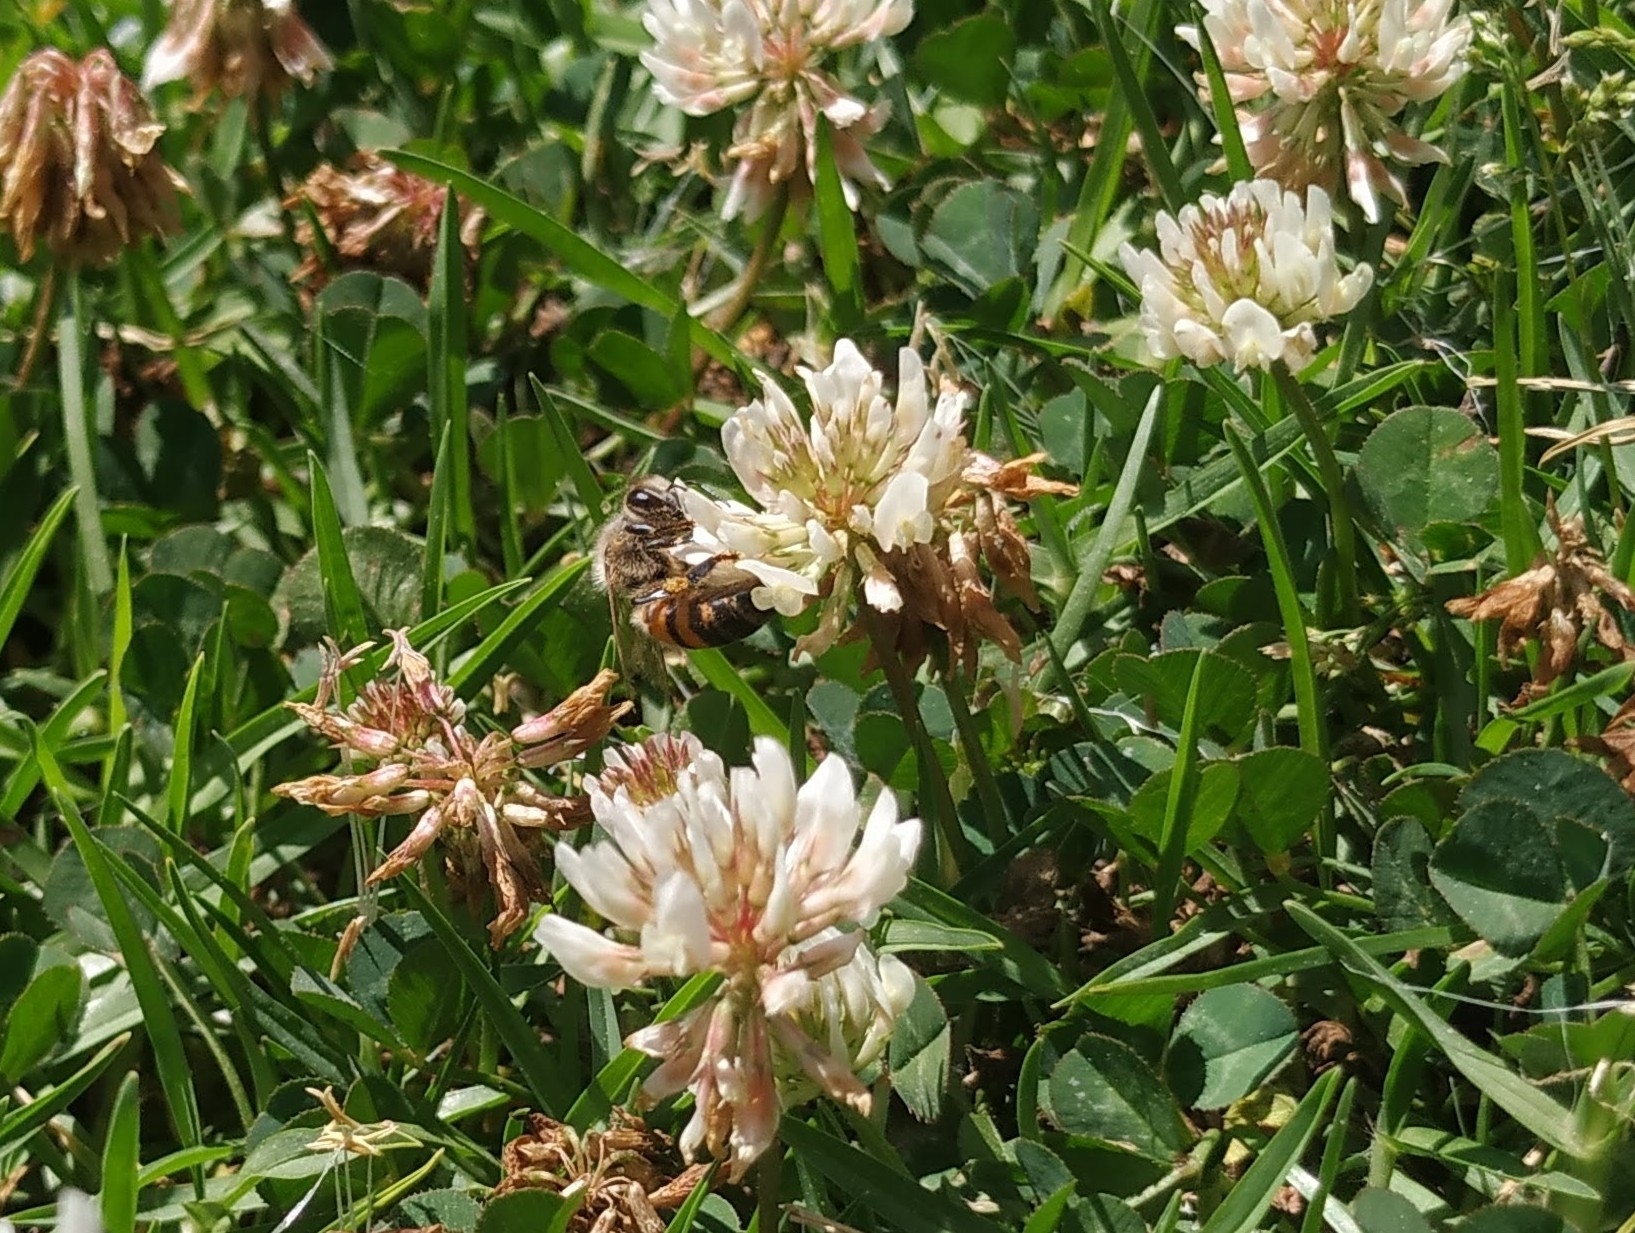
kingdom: Animalia
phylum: Arthropoda
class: Insecta
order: Hymenoptera
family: Apidae
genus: Apis
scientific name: Apis mellifera
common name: Honey bee
